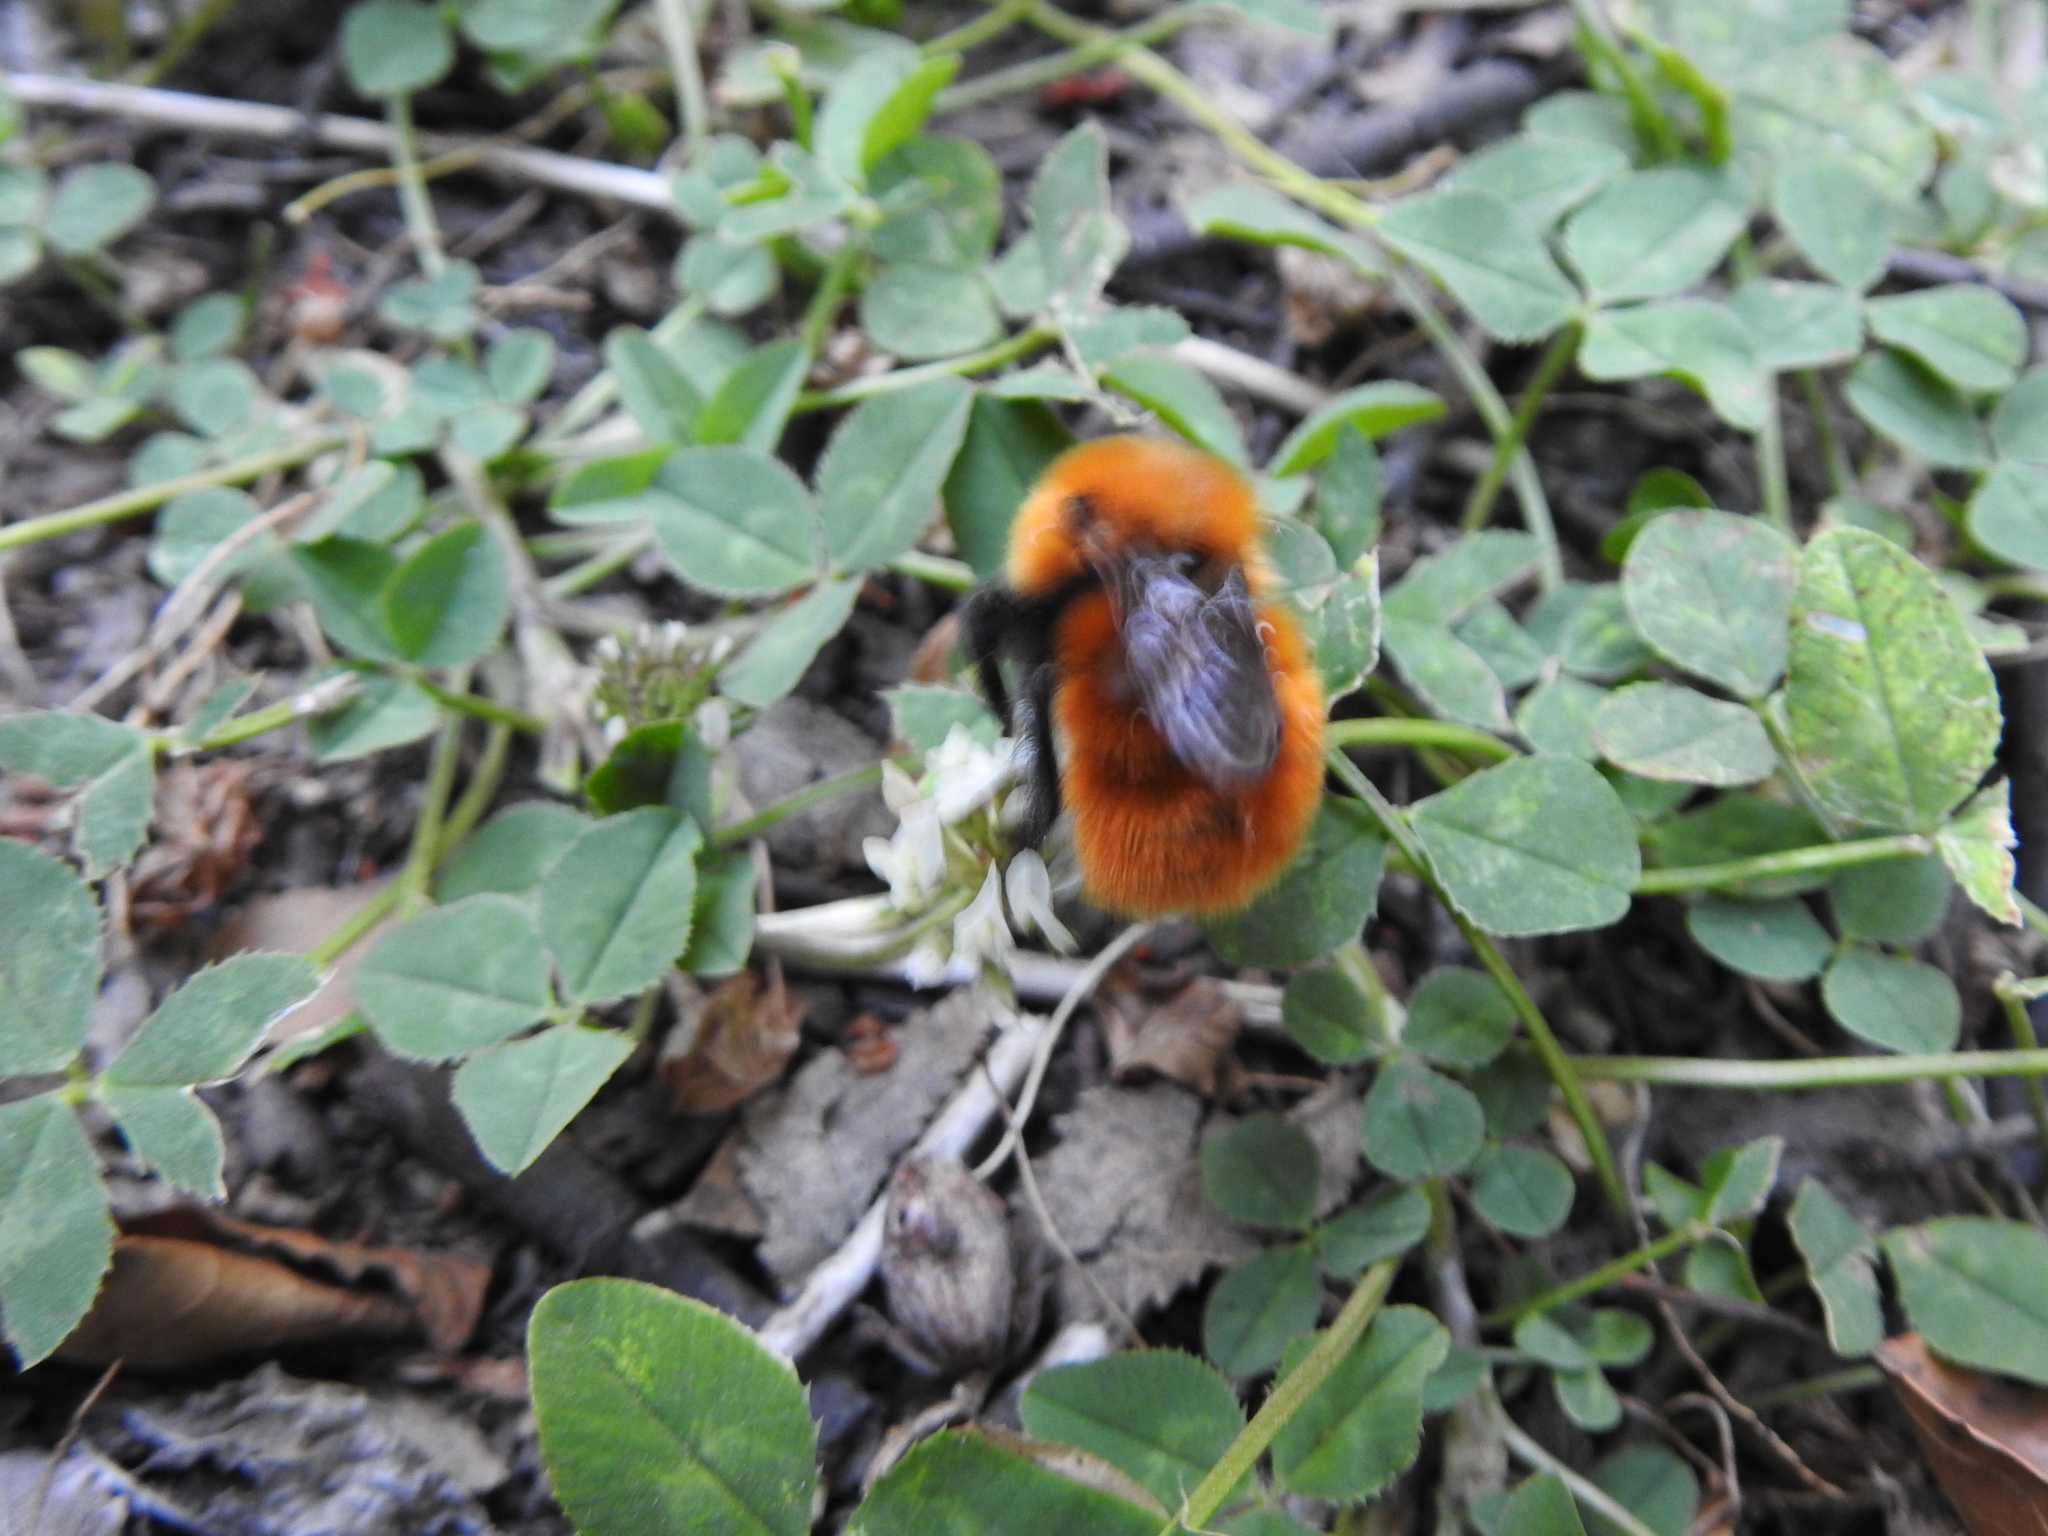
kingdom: Animalia
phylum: Arthropoda
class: Insecta
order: Hymenoptera
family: Apidae
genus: Bombus
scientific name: Bombus dahlbomii
